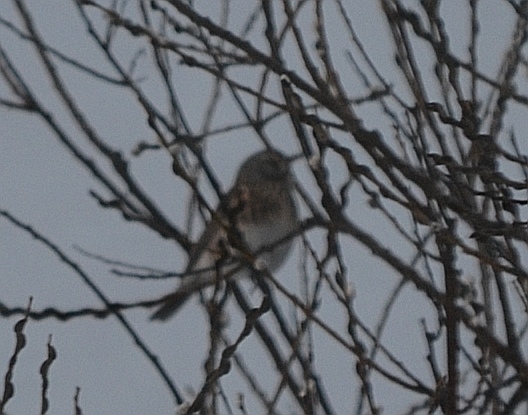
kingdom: Animalia
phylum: Chordata
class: Aves
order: Passeriformes
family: Turdidae
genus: Turdus
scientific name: Turdus pilaris
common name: Fieldfare
